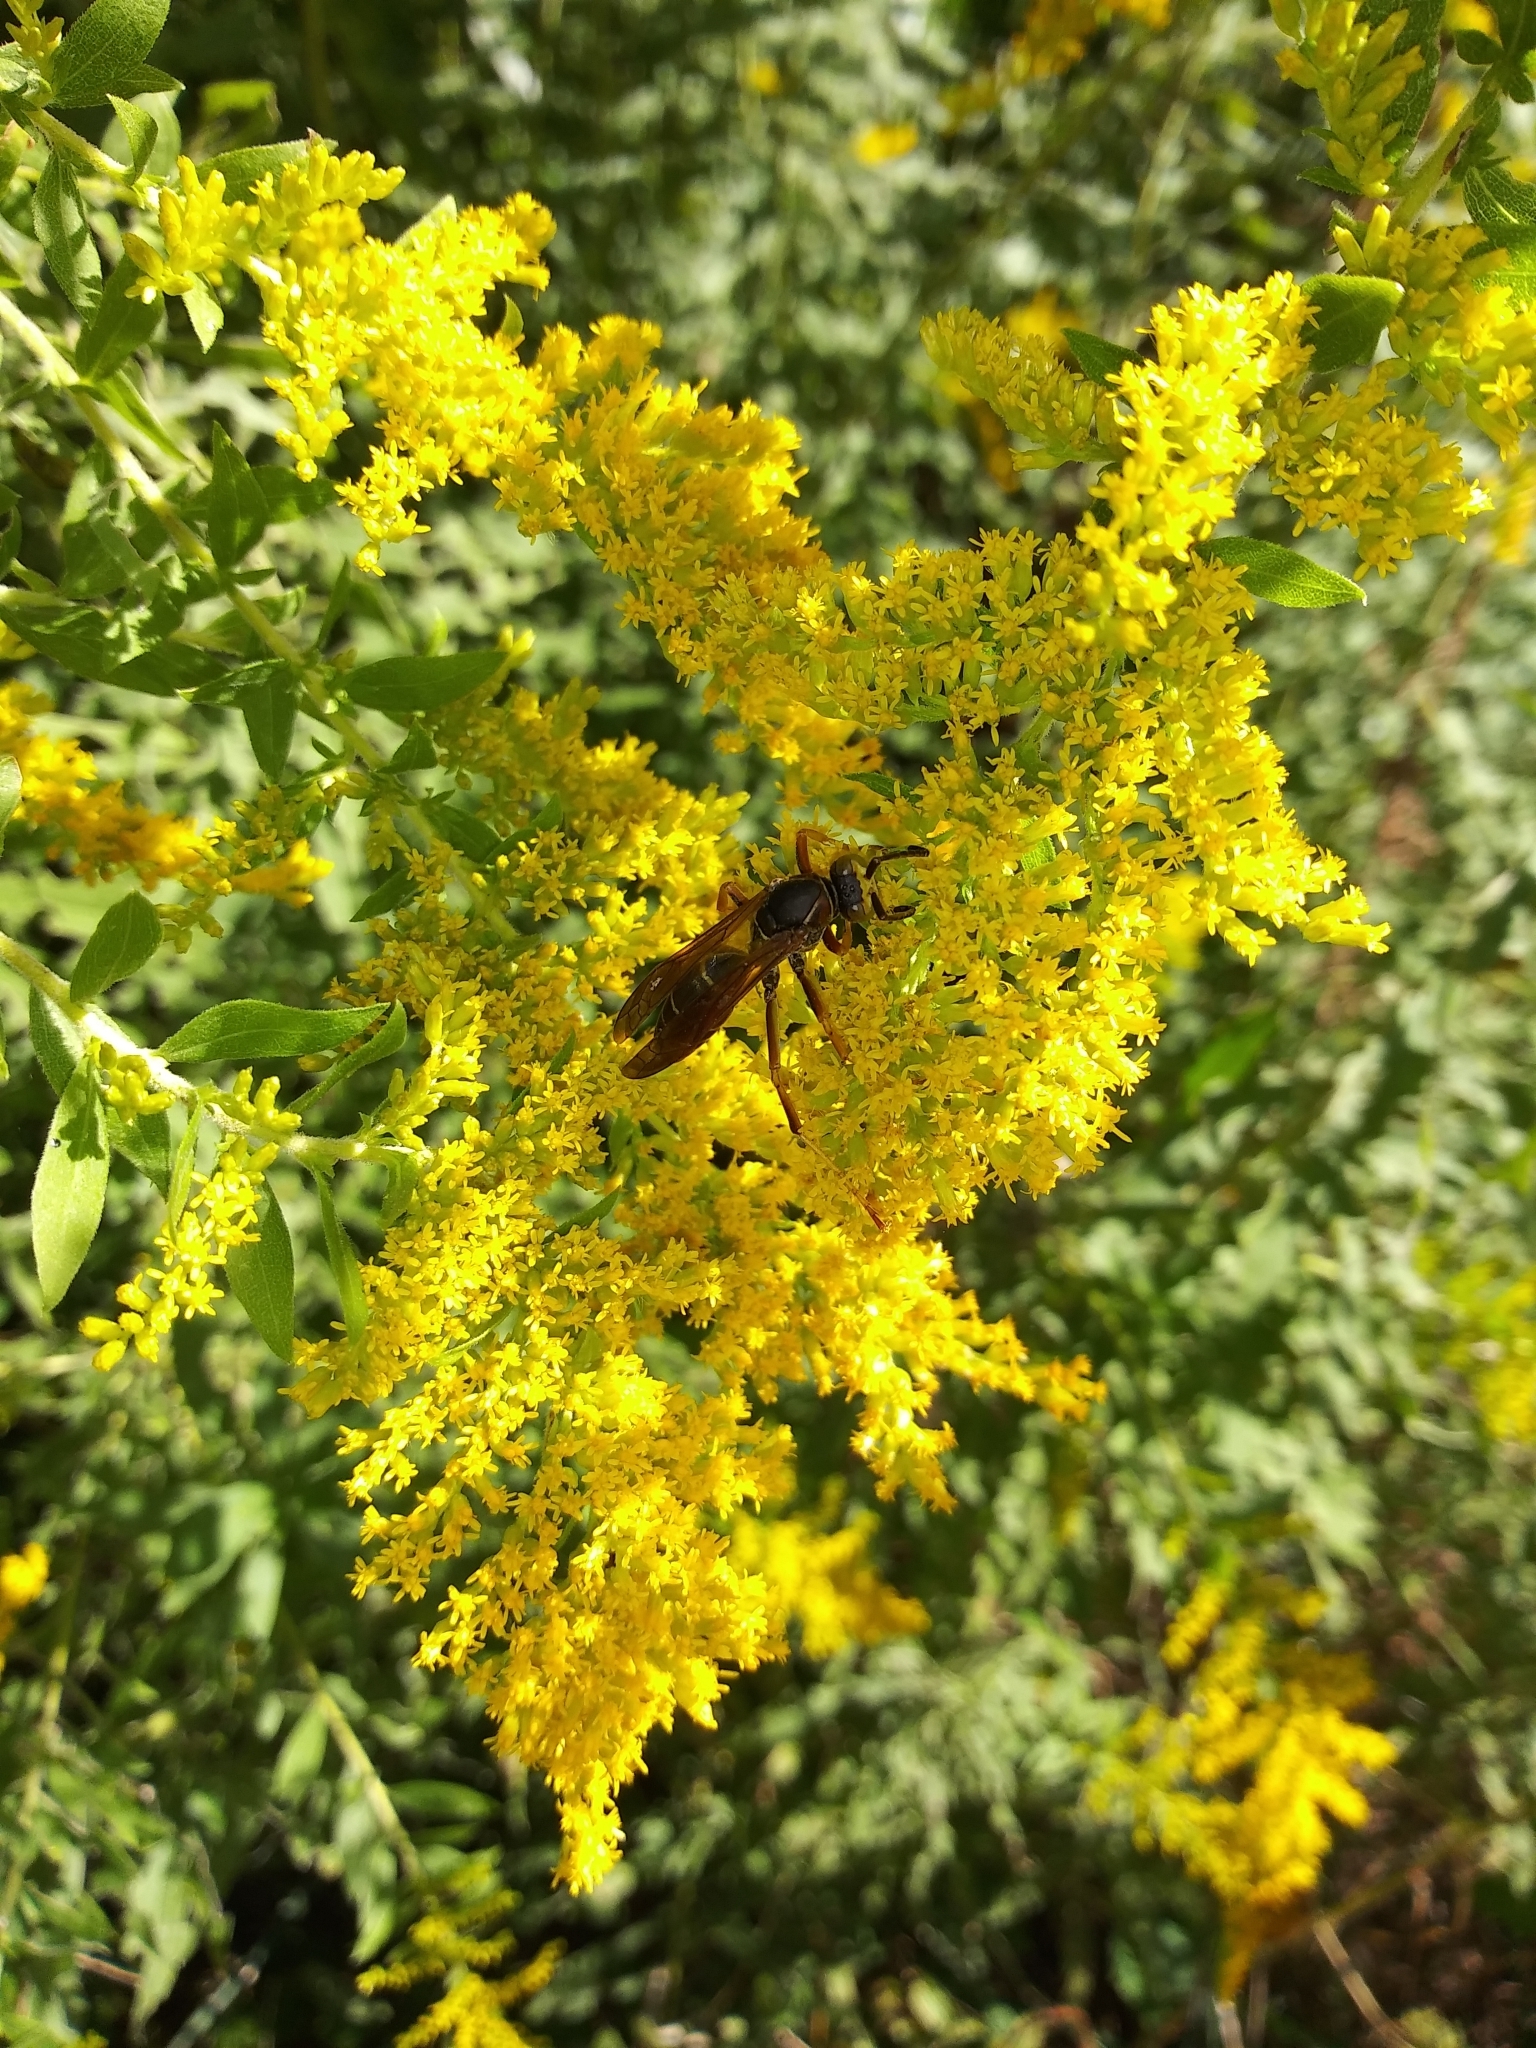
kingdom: Animalia
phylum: Arthropoda
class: Insecta
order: Hymenoptera
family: Eumenidae
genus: Polistes
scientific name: Polistes fuscatus
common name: Dark paper wasp
